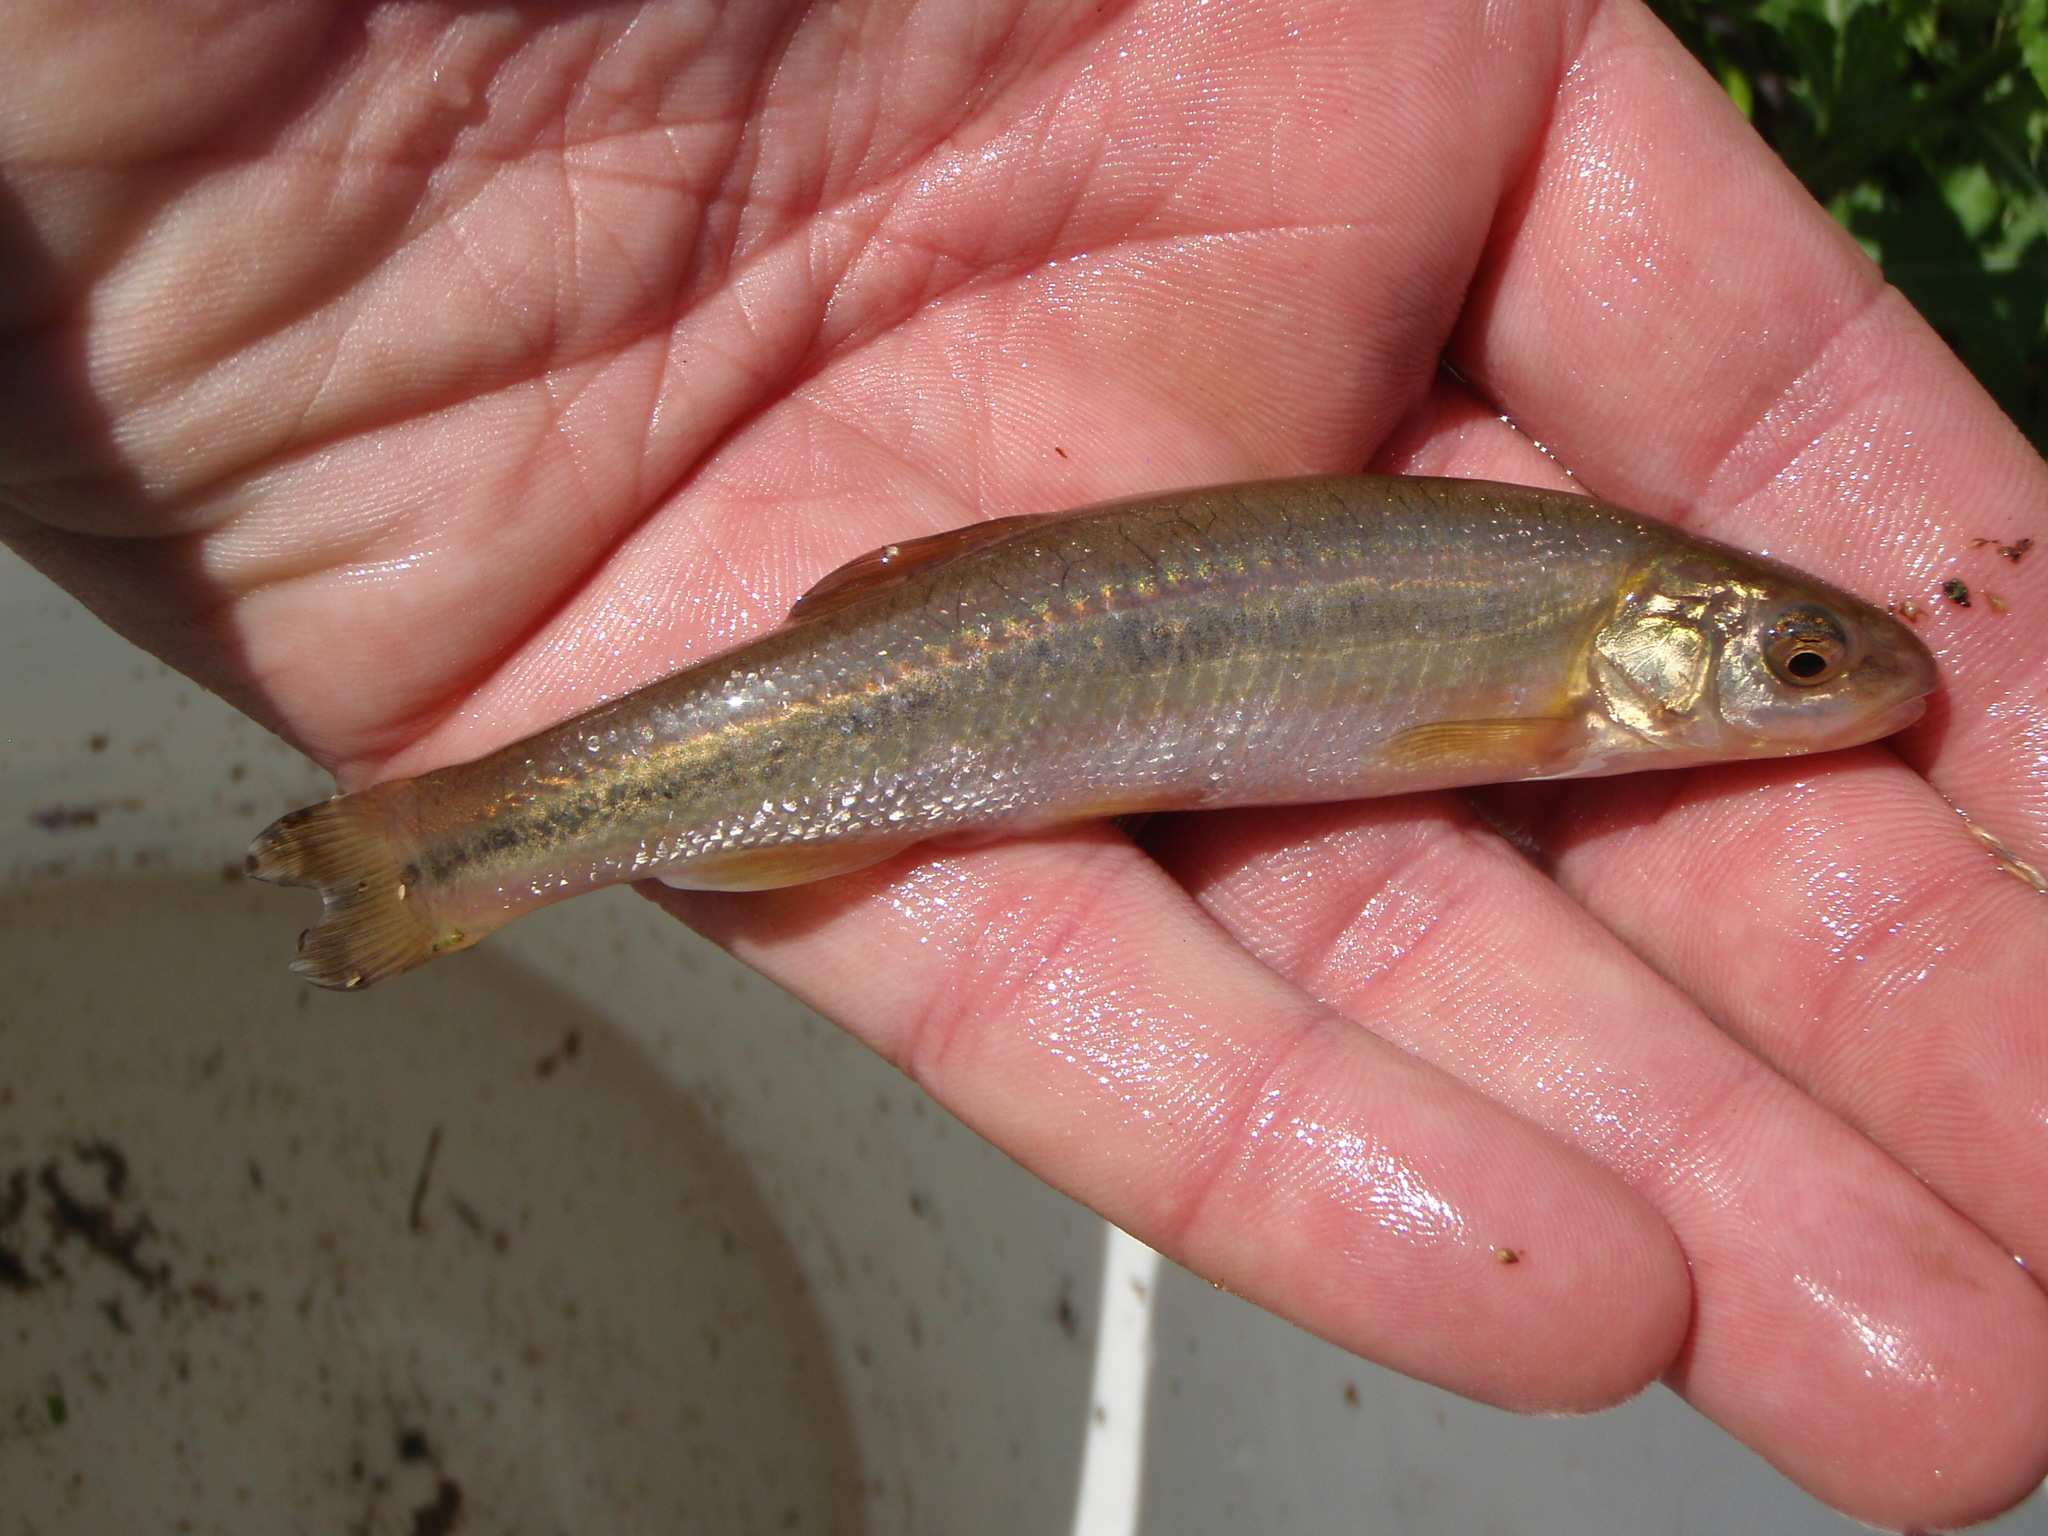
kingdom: Animalia
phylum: Chordata
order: Cypriniformes
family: Cyprinidae
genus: Couesius
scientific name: Couesius plumbeus
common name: Lake chub
